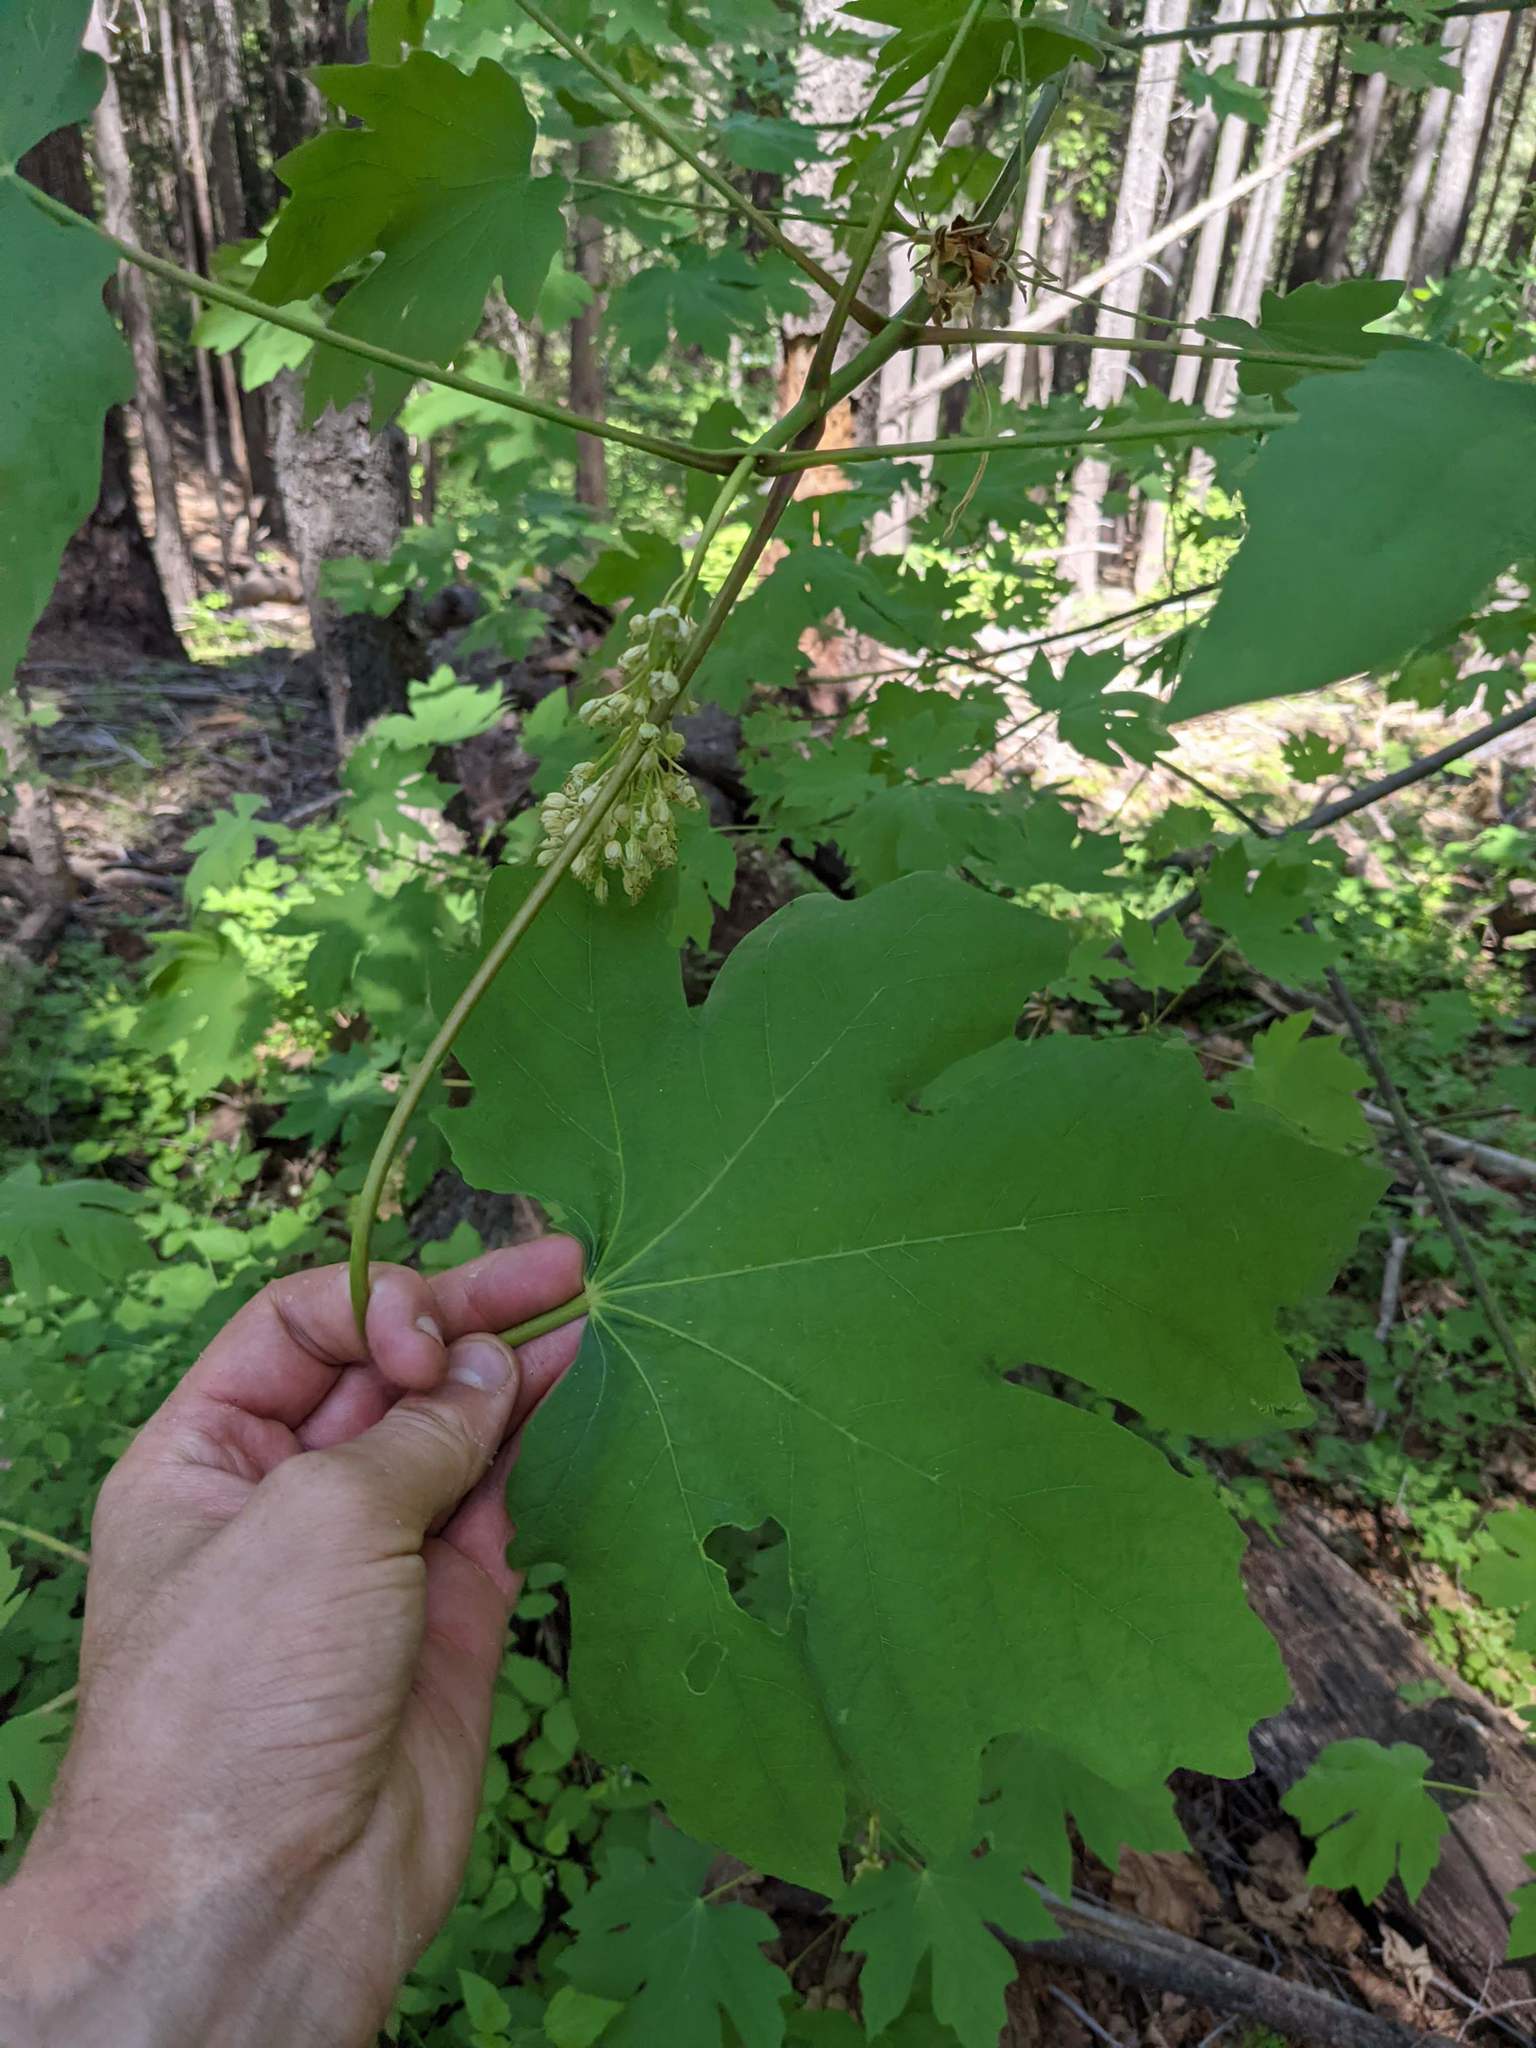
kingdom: Plantae
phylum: Tracheophyta
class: Magnoliopsida
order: Sapindales
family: Sapindaceae
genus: Acer
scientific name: Acer macrophyllum
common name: Oregon maple
